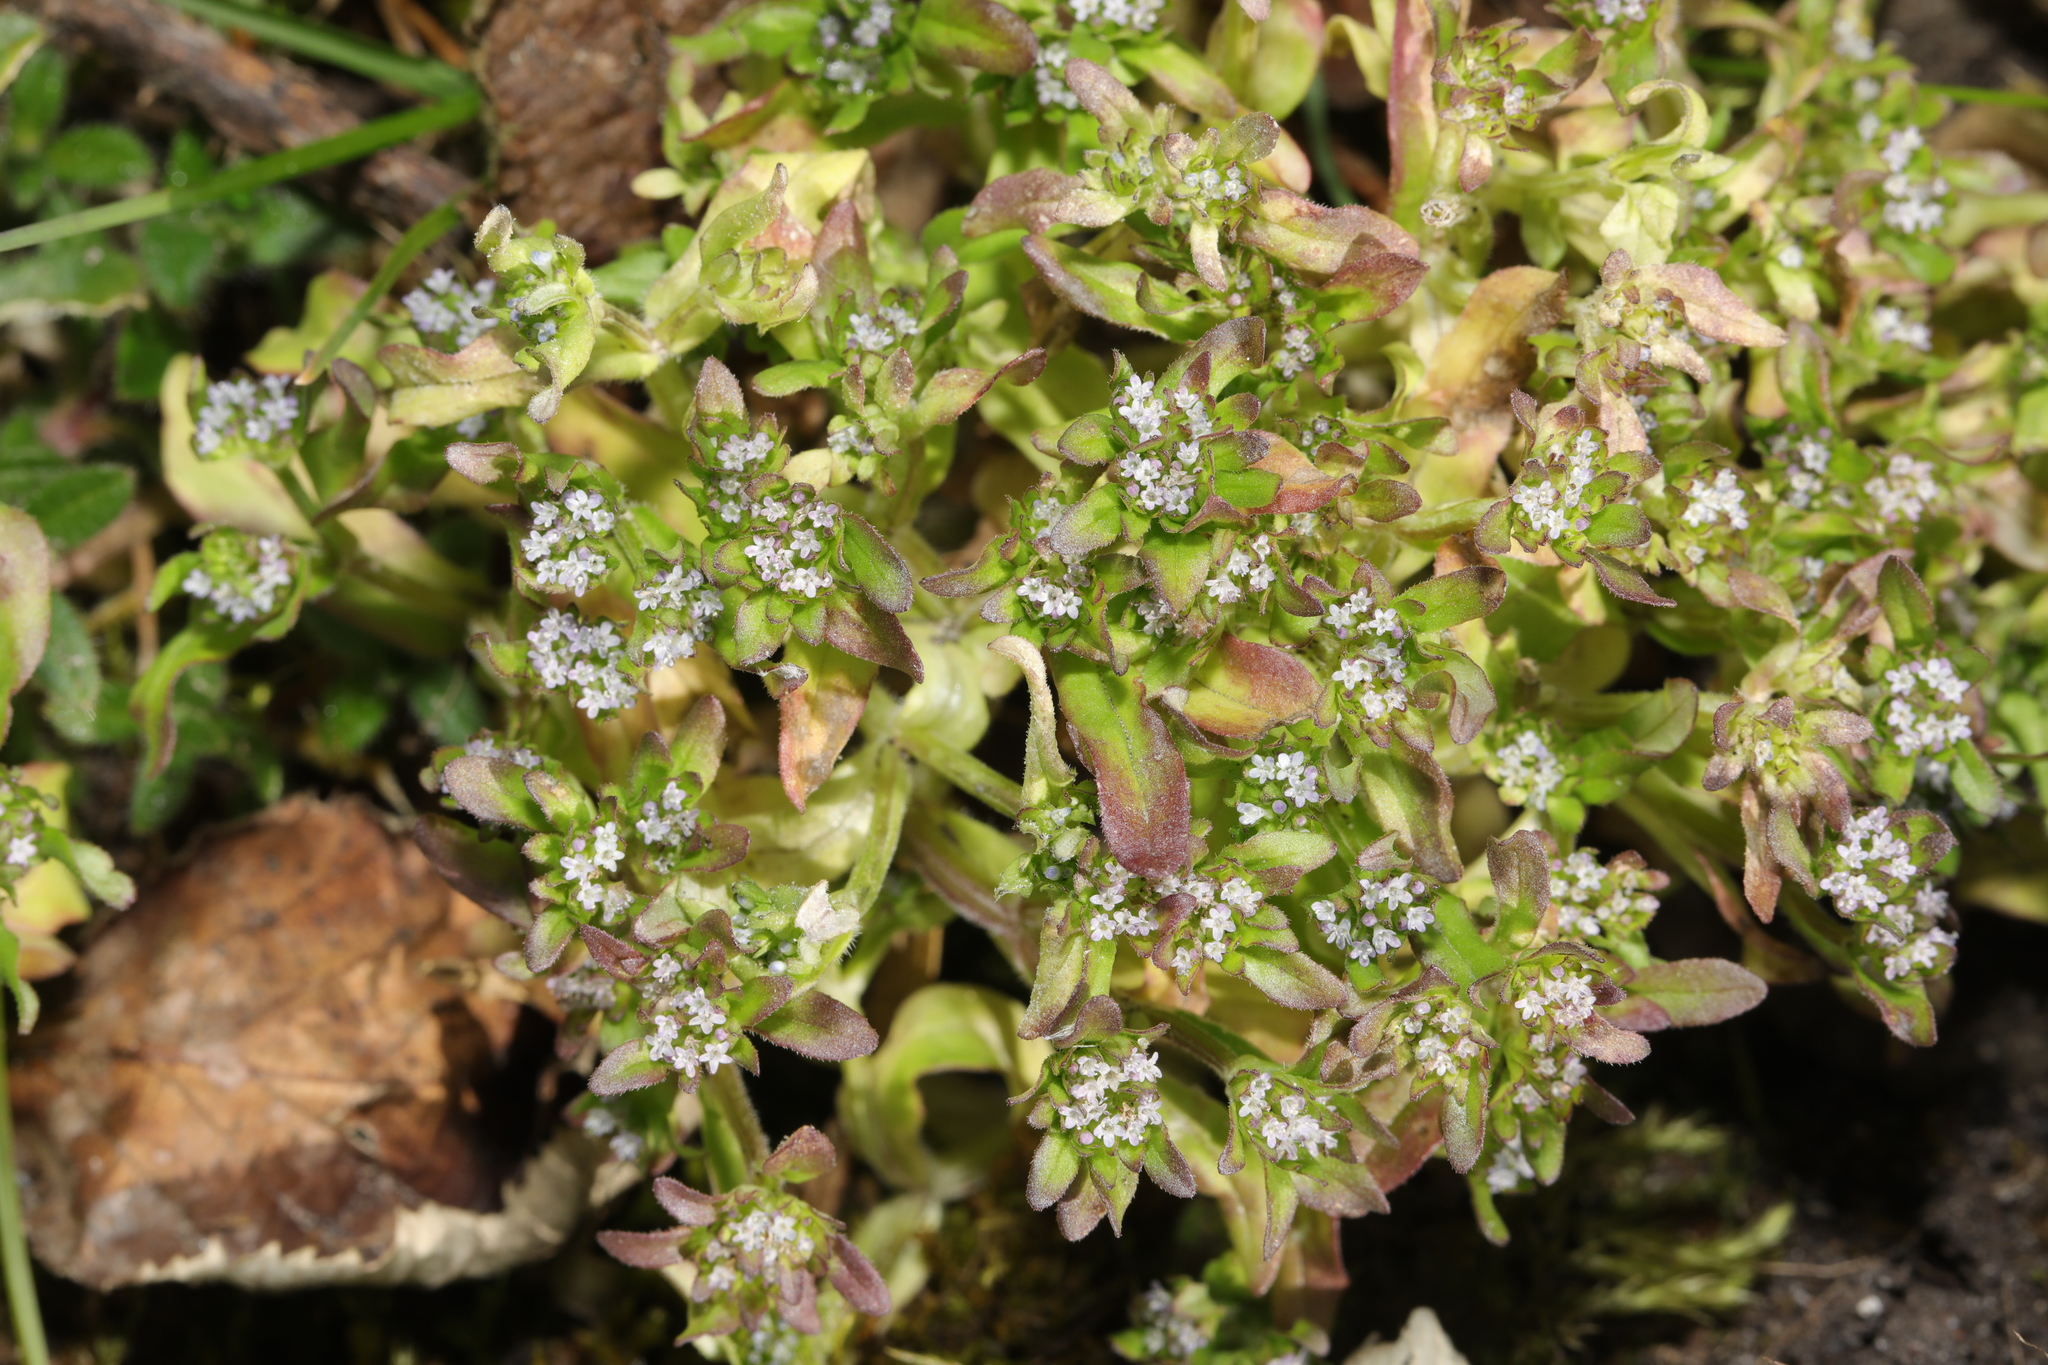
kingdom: Plantae
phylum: Tracheophyta
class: Magnoliopsida
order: Dipsacales
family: Caprifoliaceae
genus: Valerianella
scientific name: Valerianella locusta
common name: Common cornsalad
